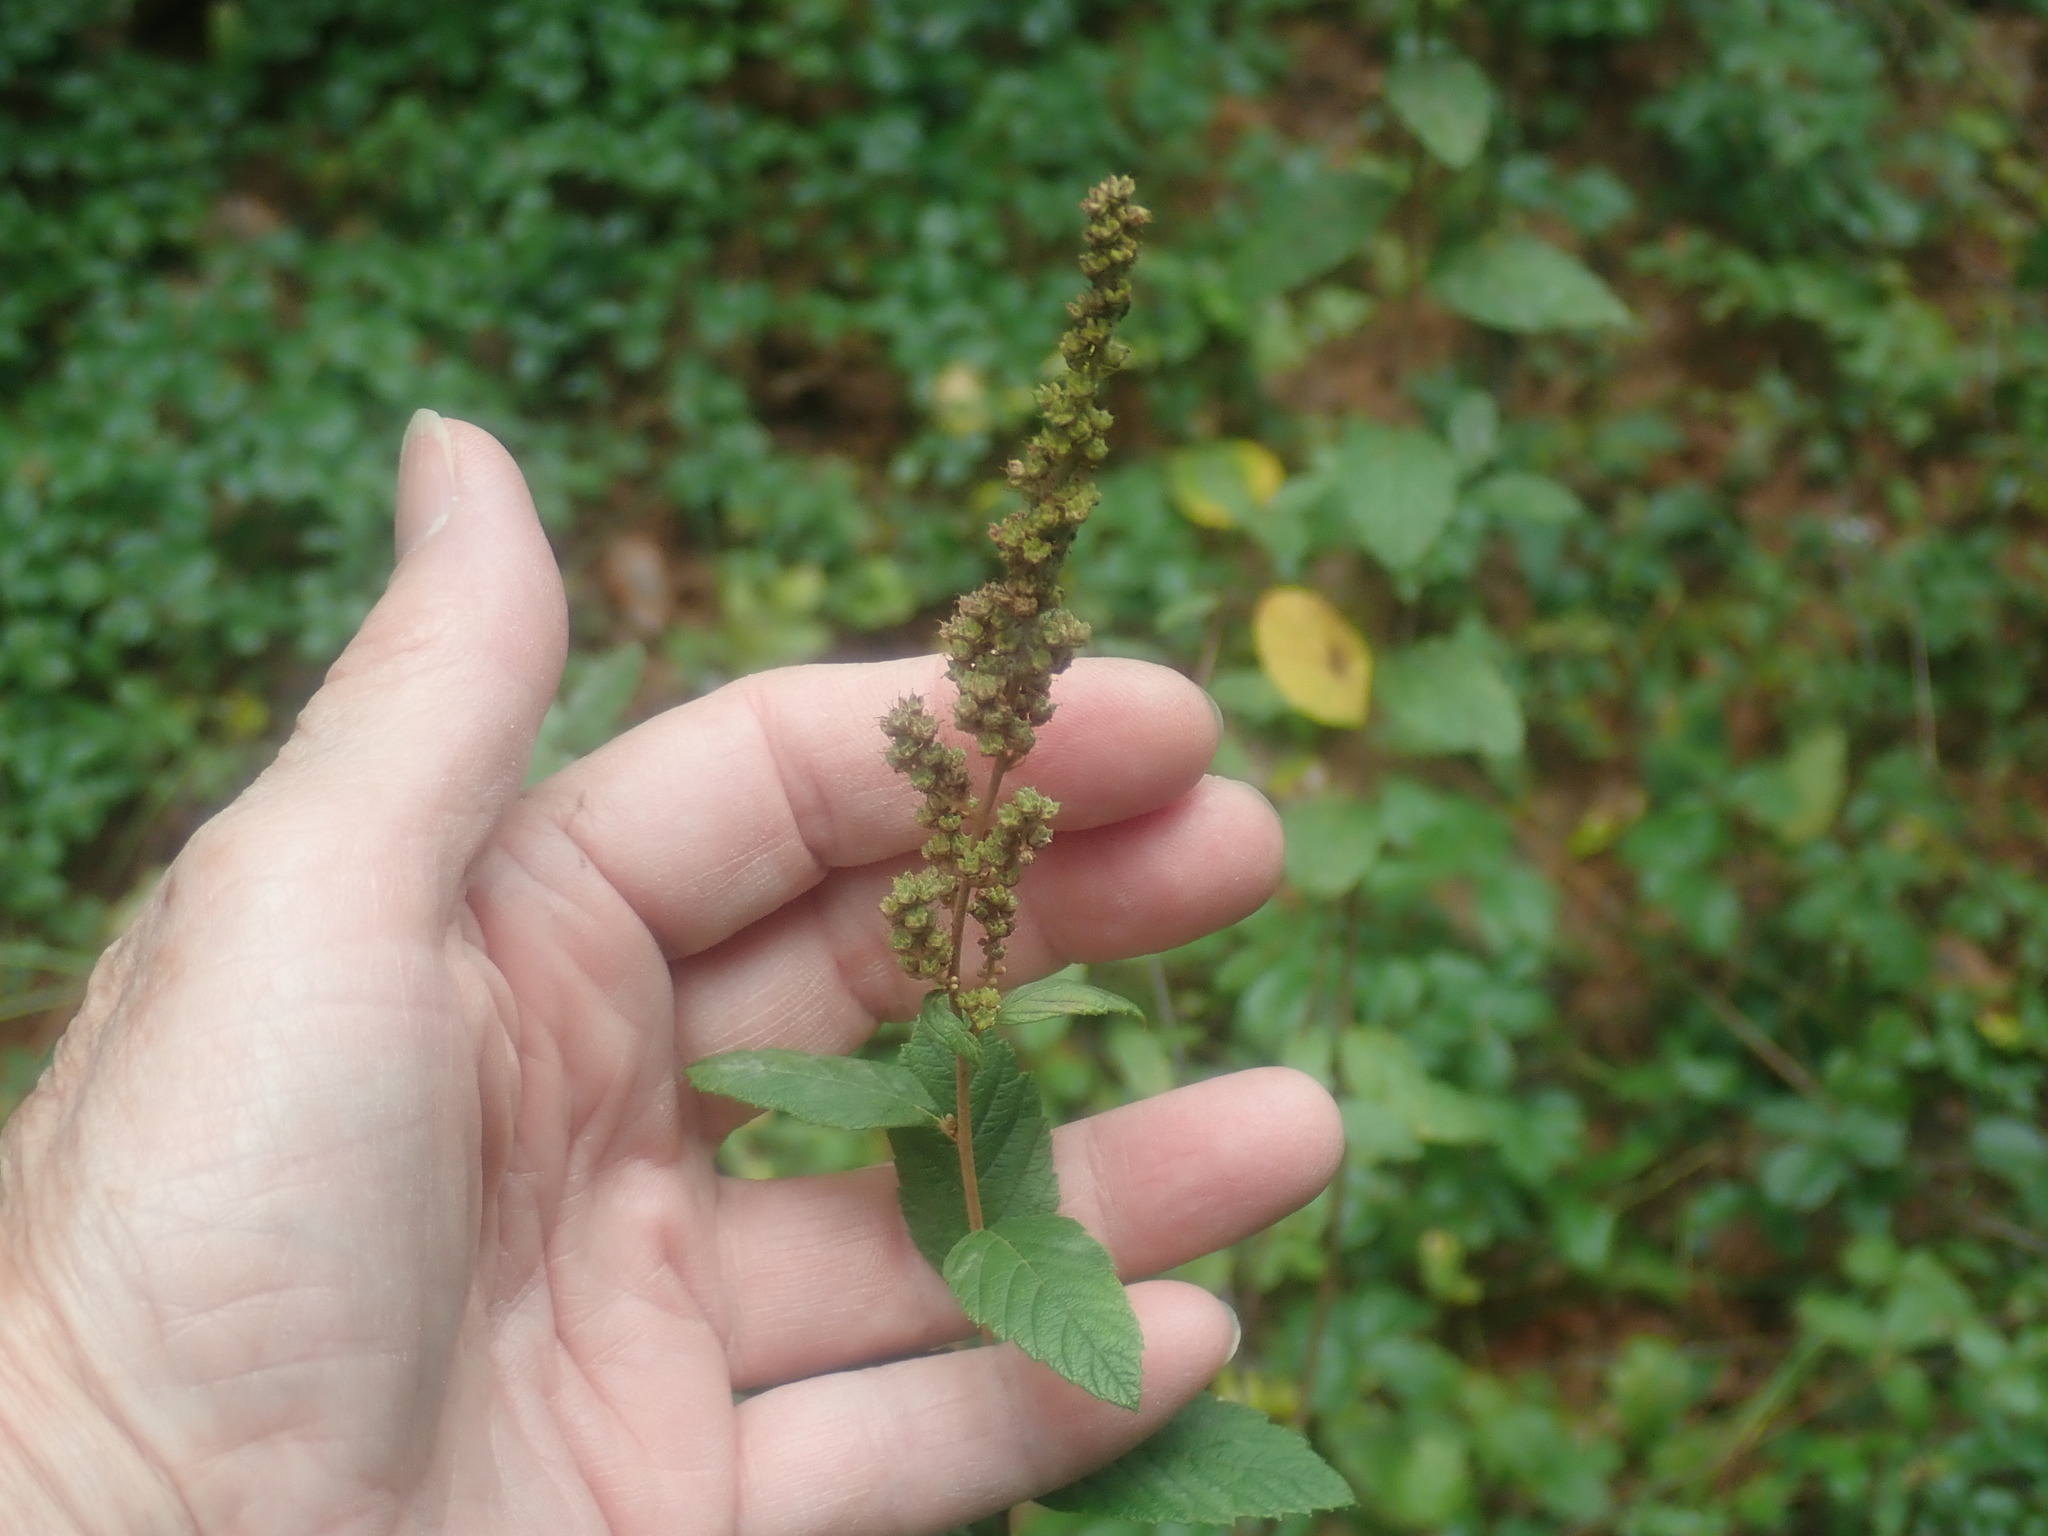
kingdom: Plantae
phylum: Tracheophyta
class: Magnoliopsida
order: Rosales
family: Rosaceae
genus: Spiraea
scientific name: Spiraea tomentosa
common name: Hardhack
